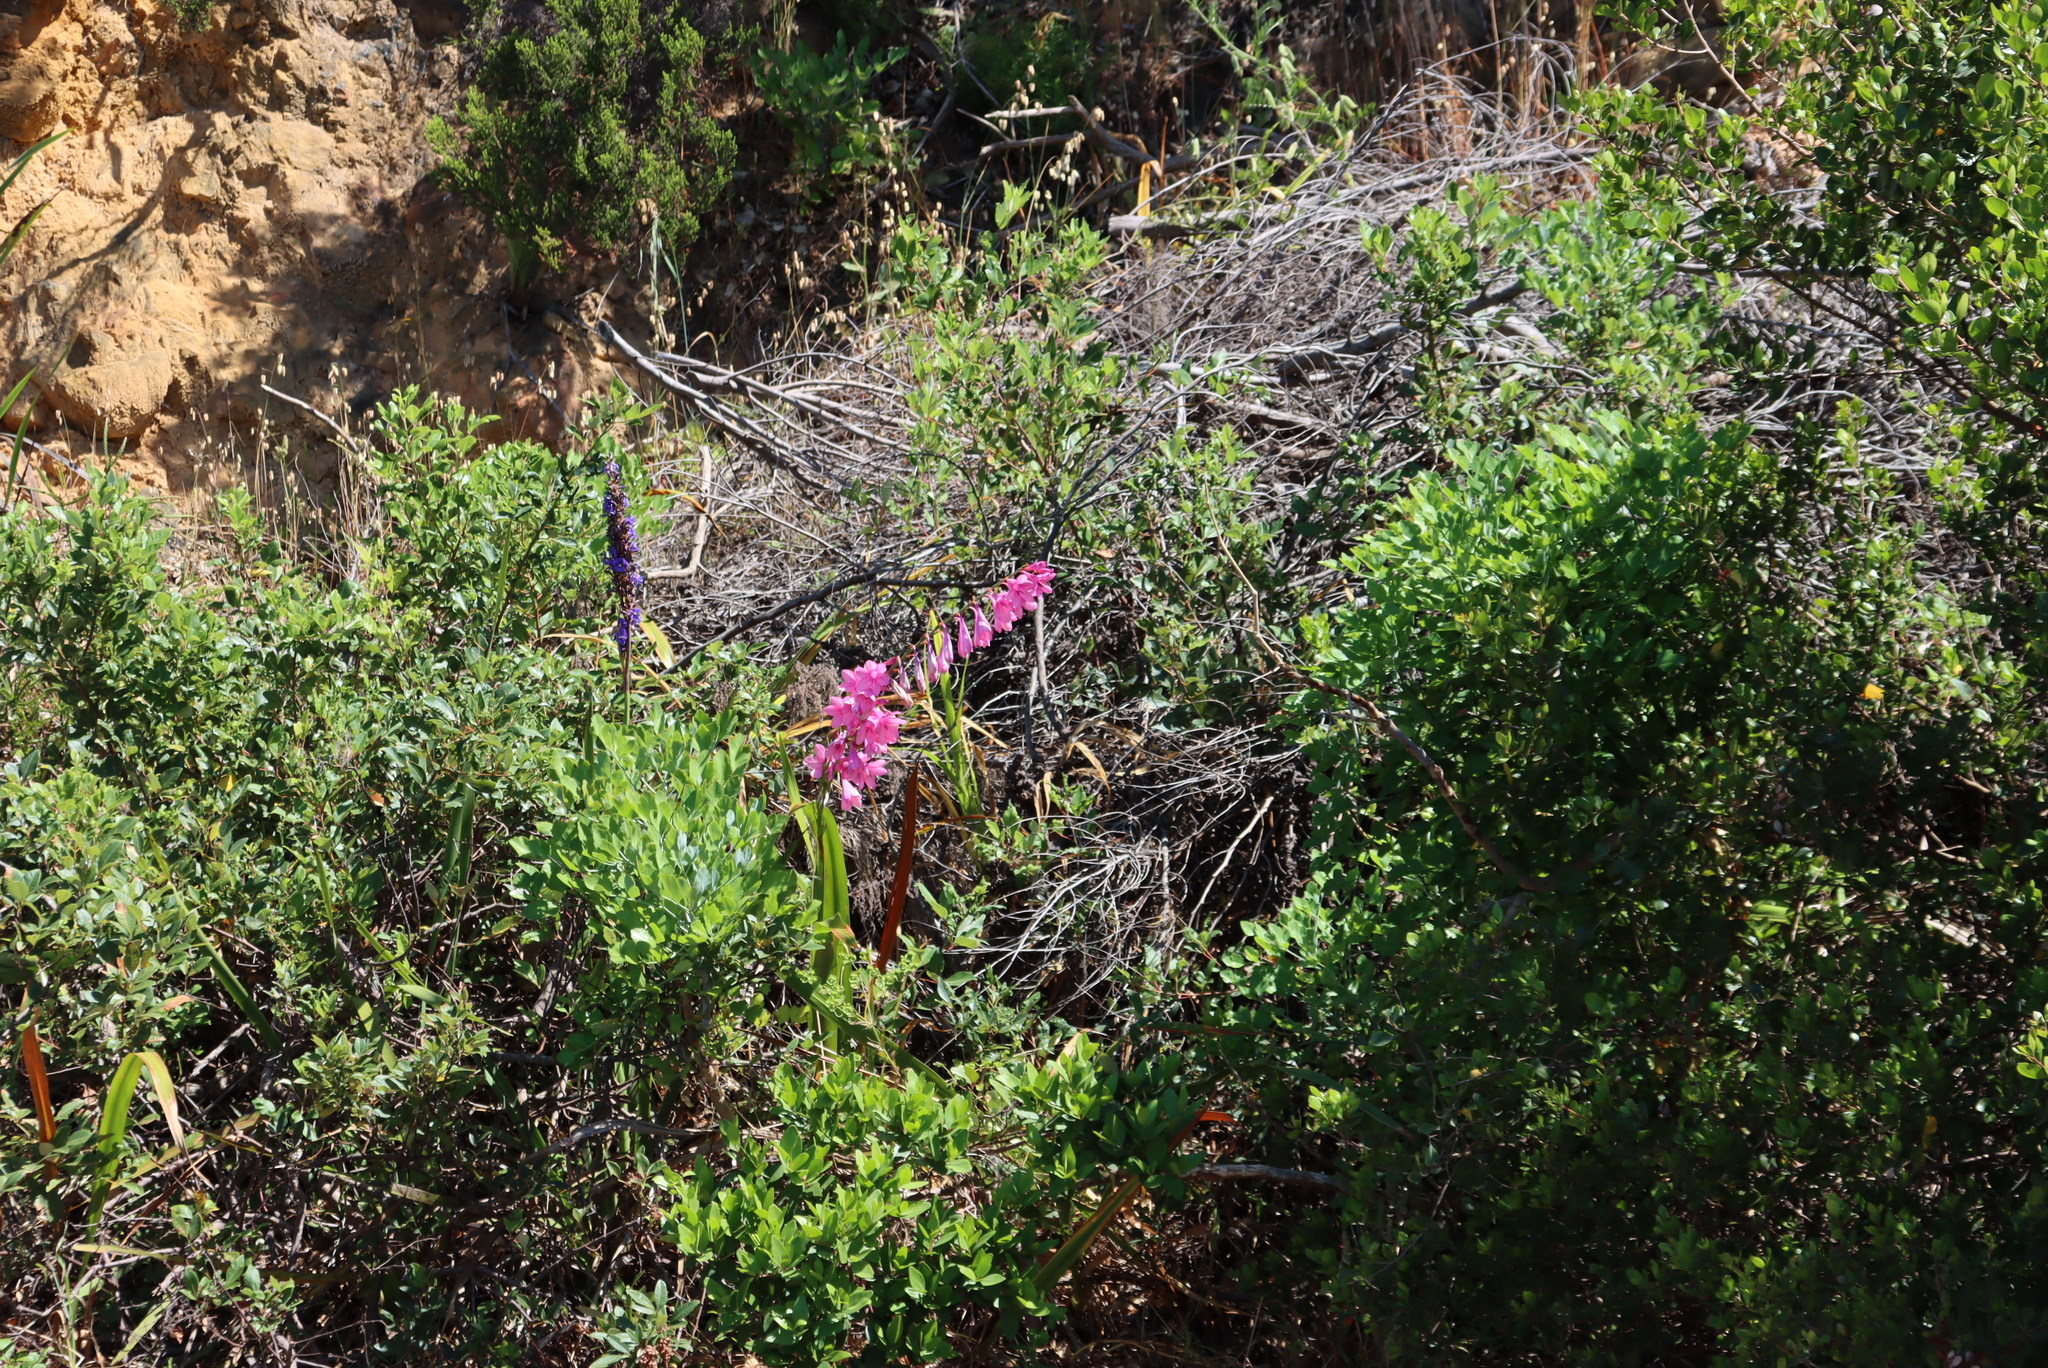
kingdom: Plantae
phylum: Tracheophyta
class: Liliopsida
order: Asparagales
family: Iridaceae
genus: Aristea
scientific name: Aristea bakeri
